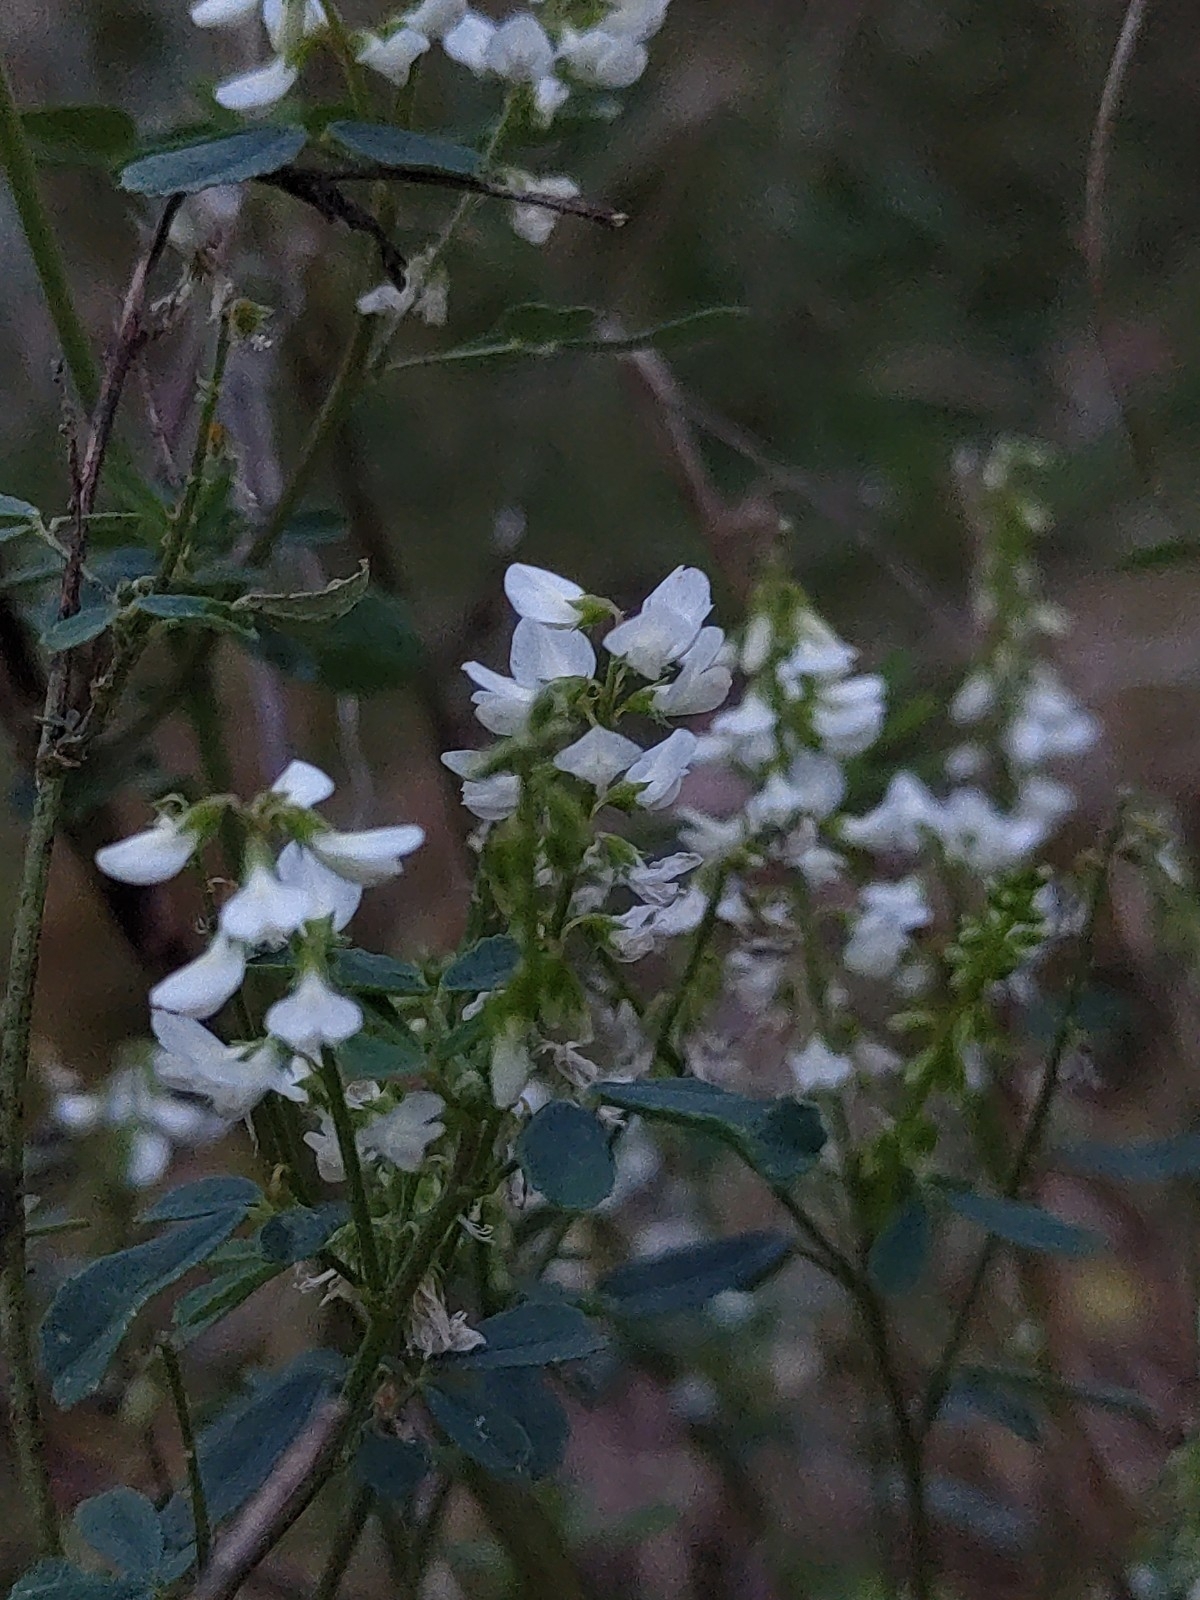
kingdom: Plantae
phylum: Tracheophyta
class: Magnoliopsida
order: Fabales
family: Fabaceae
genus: Melilotus
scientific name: Melilotus albus
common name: White melilot
